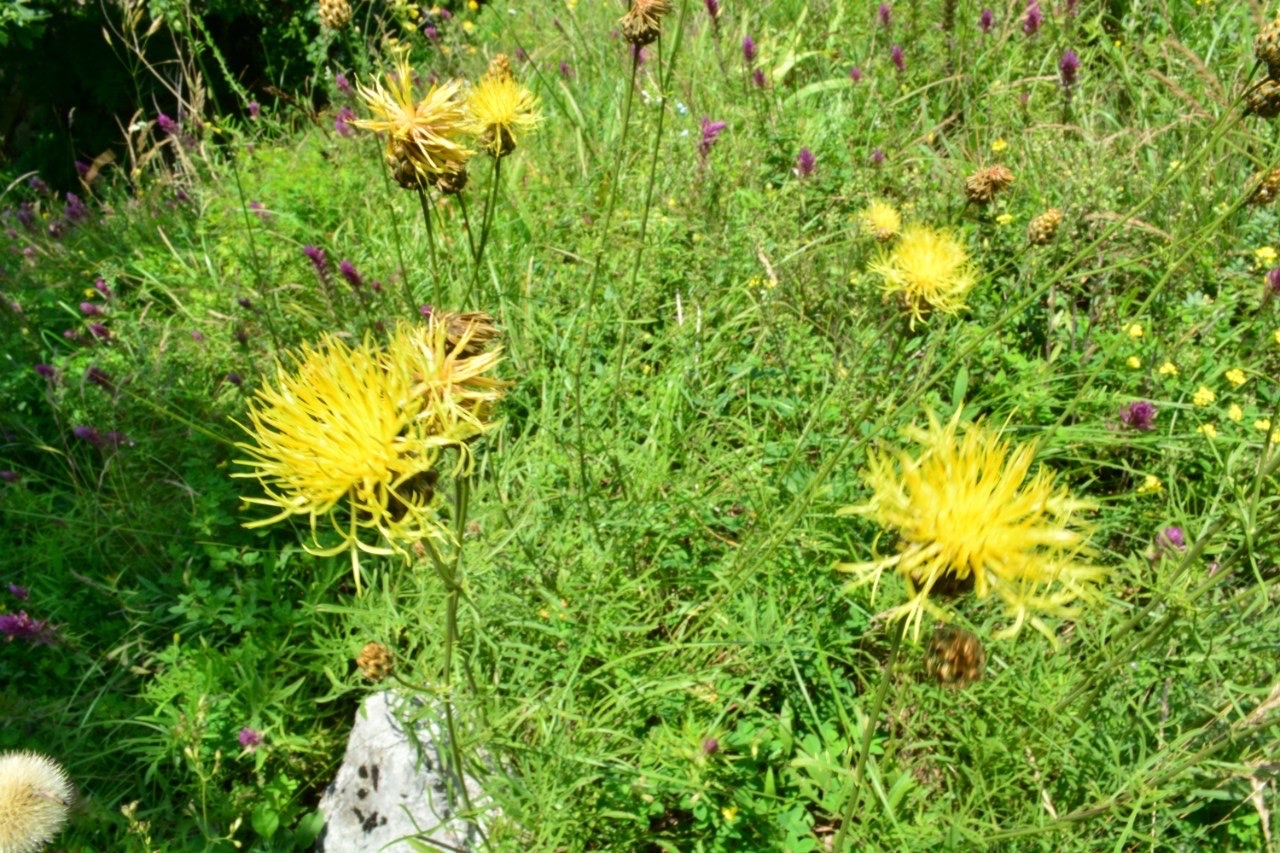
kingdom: Plantae
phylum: Tracheophyta
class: Magnoliopsida
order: Asterales
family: Asteraceae
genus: Centaurea
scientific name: Centaurea orientalis
